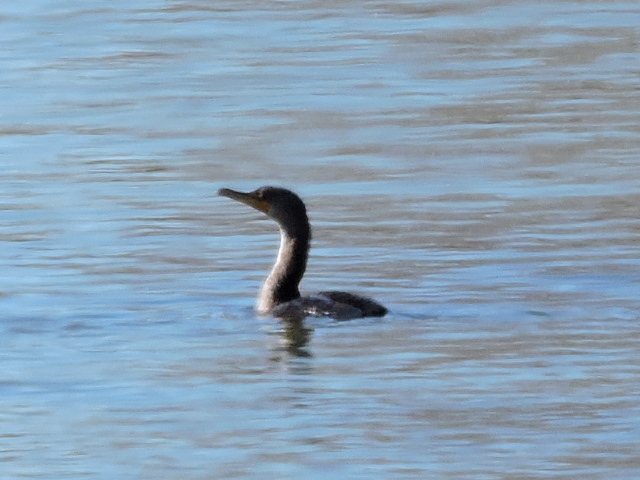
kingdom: Animalia
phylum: Chordata
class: Aves
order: Suliformes
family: Phalacrocoracidae
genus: Phalacrocorax
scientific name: Phalacrocorax auritus
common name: Double-crested cormorant
